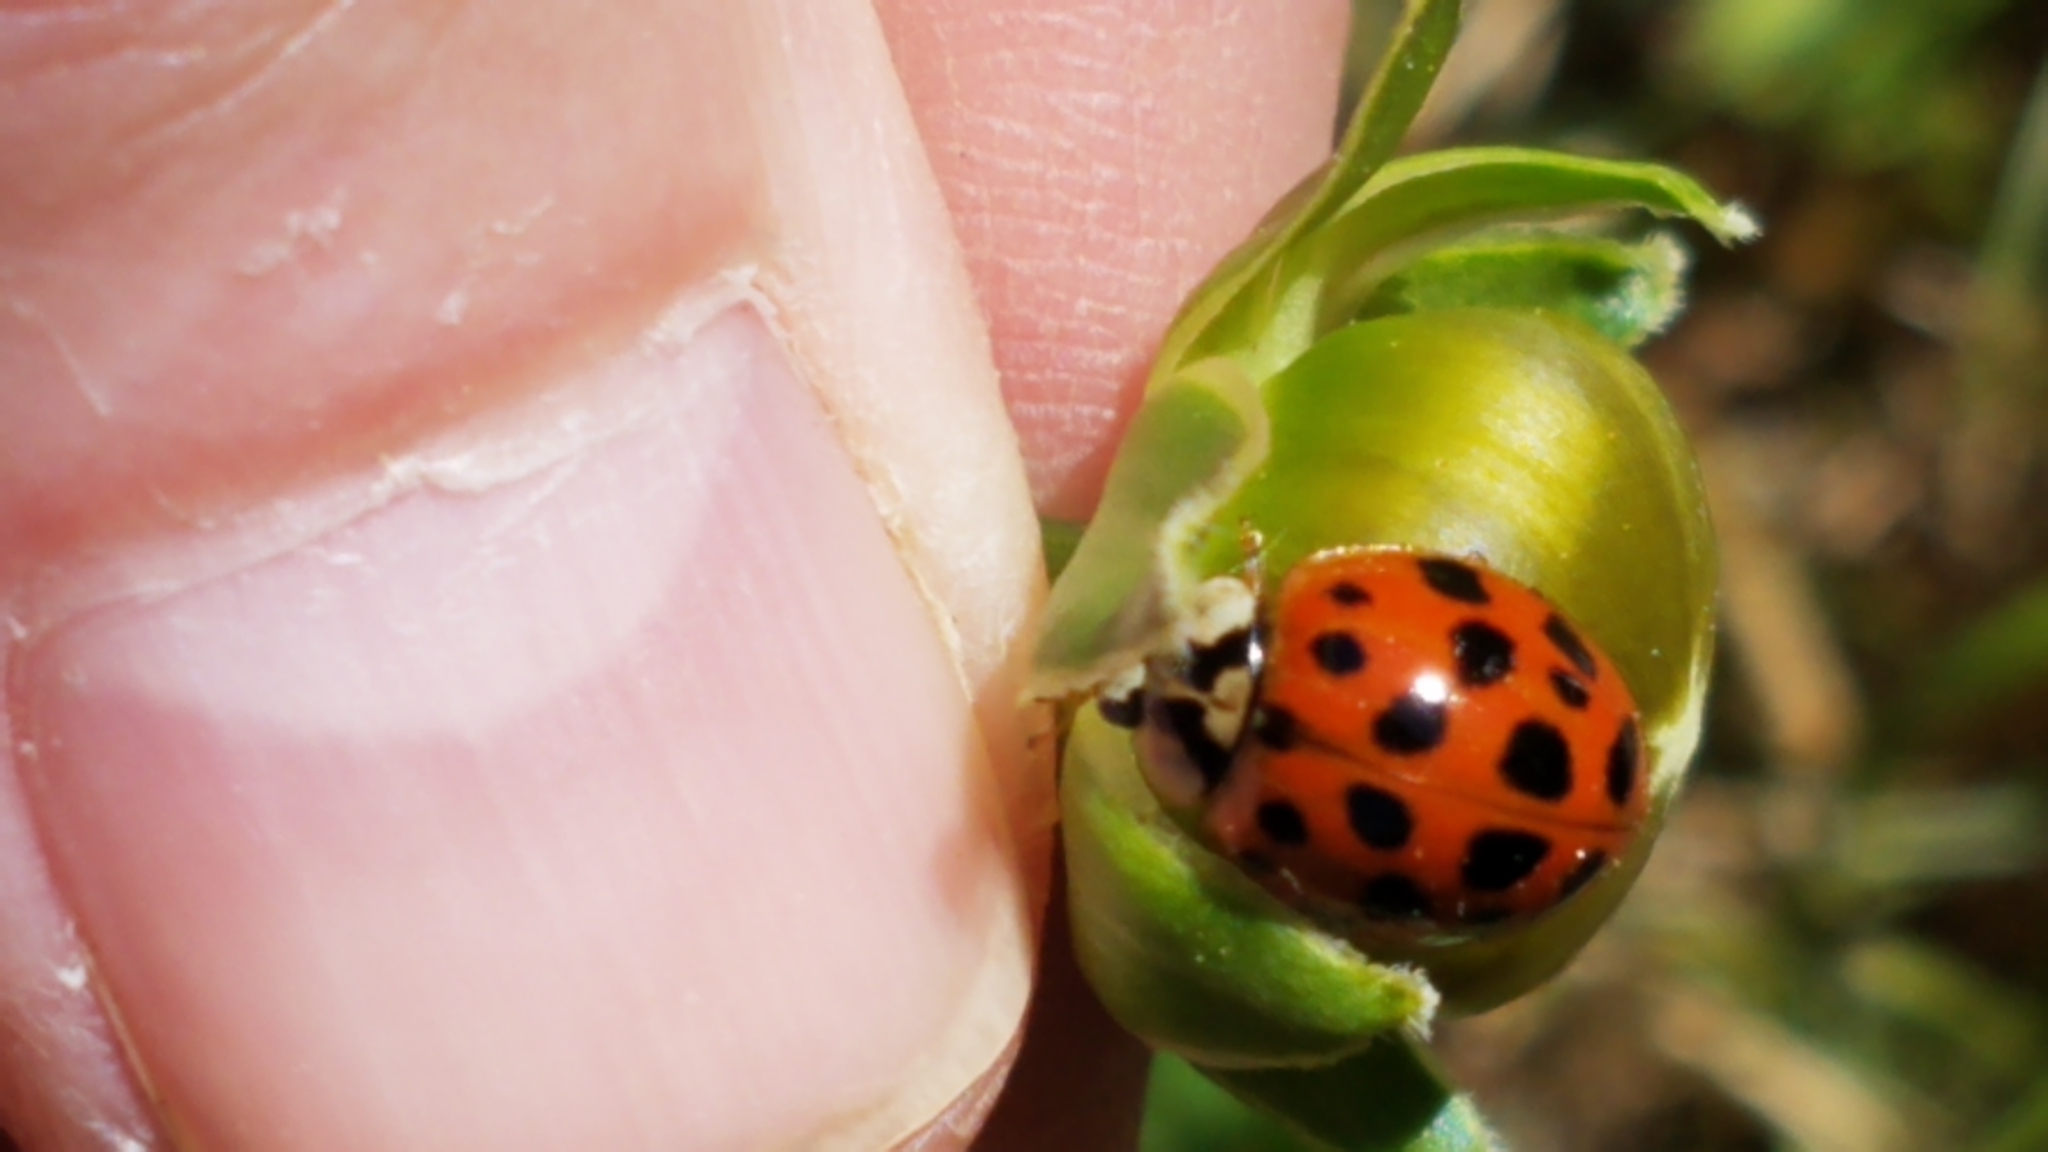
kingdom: Animalia
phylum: Arthropoda
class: Insecta
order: Coleoptera
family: Coccinellidae
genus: Harmonia
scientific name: Harmonia axyridis
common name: Harlequin ladybird
